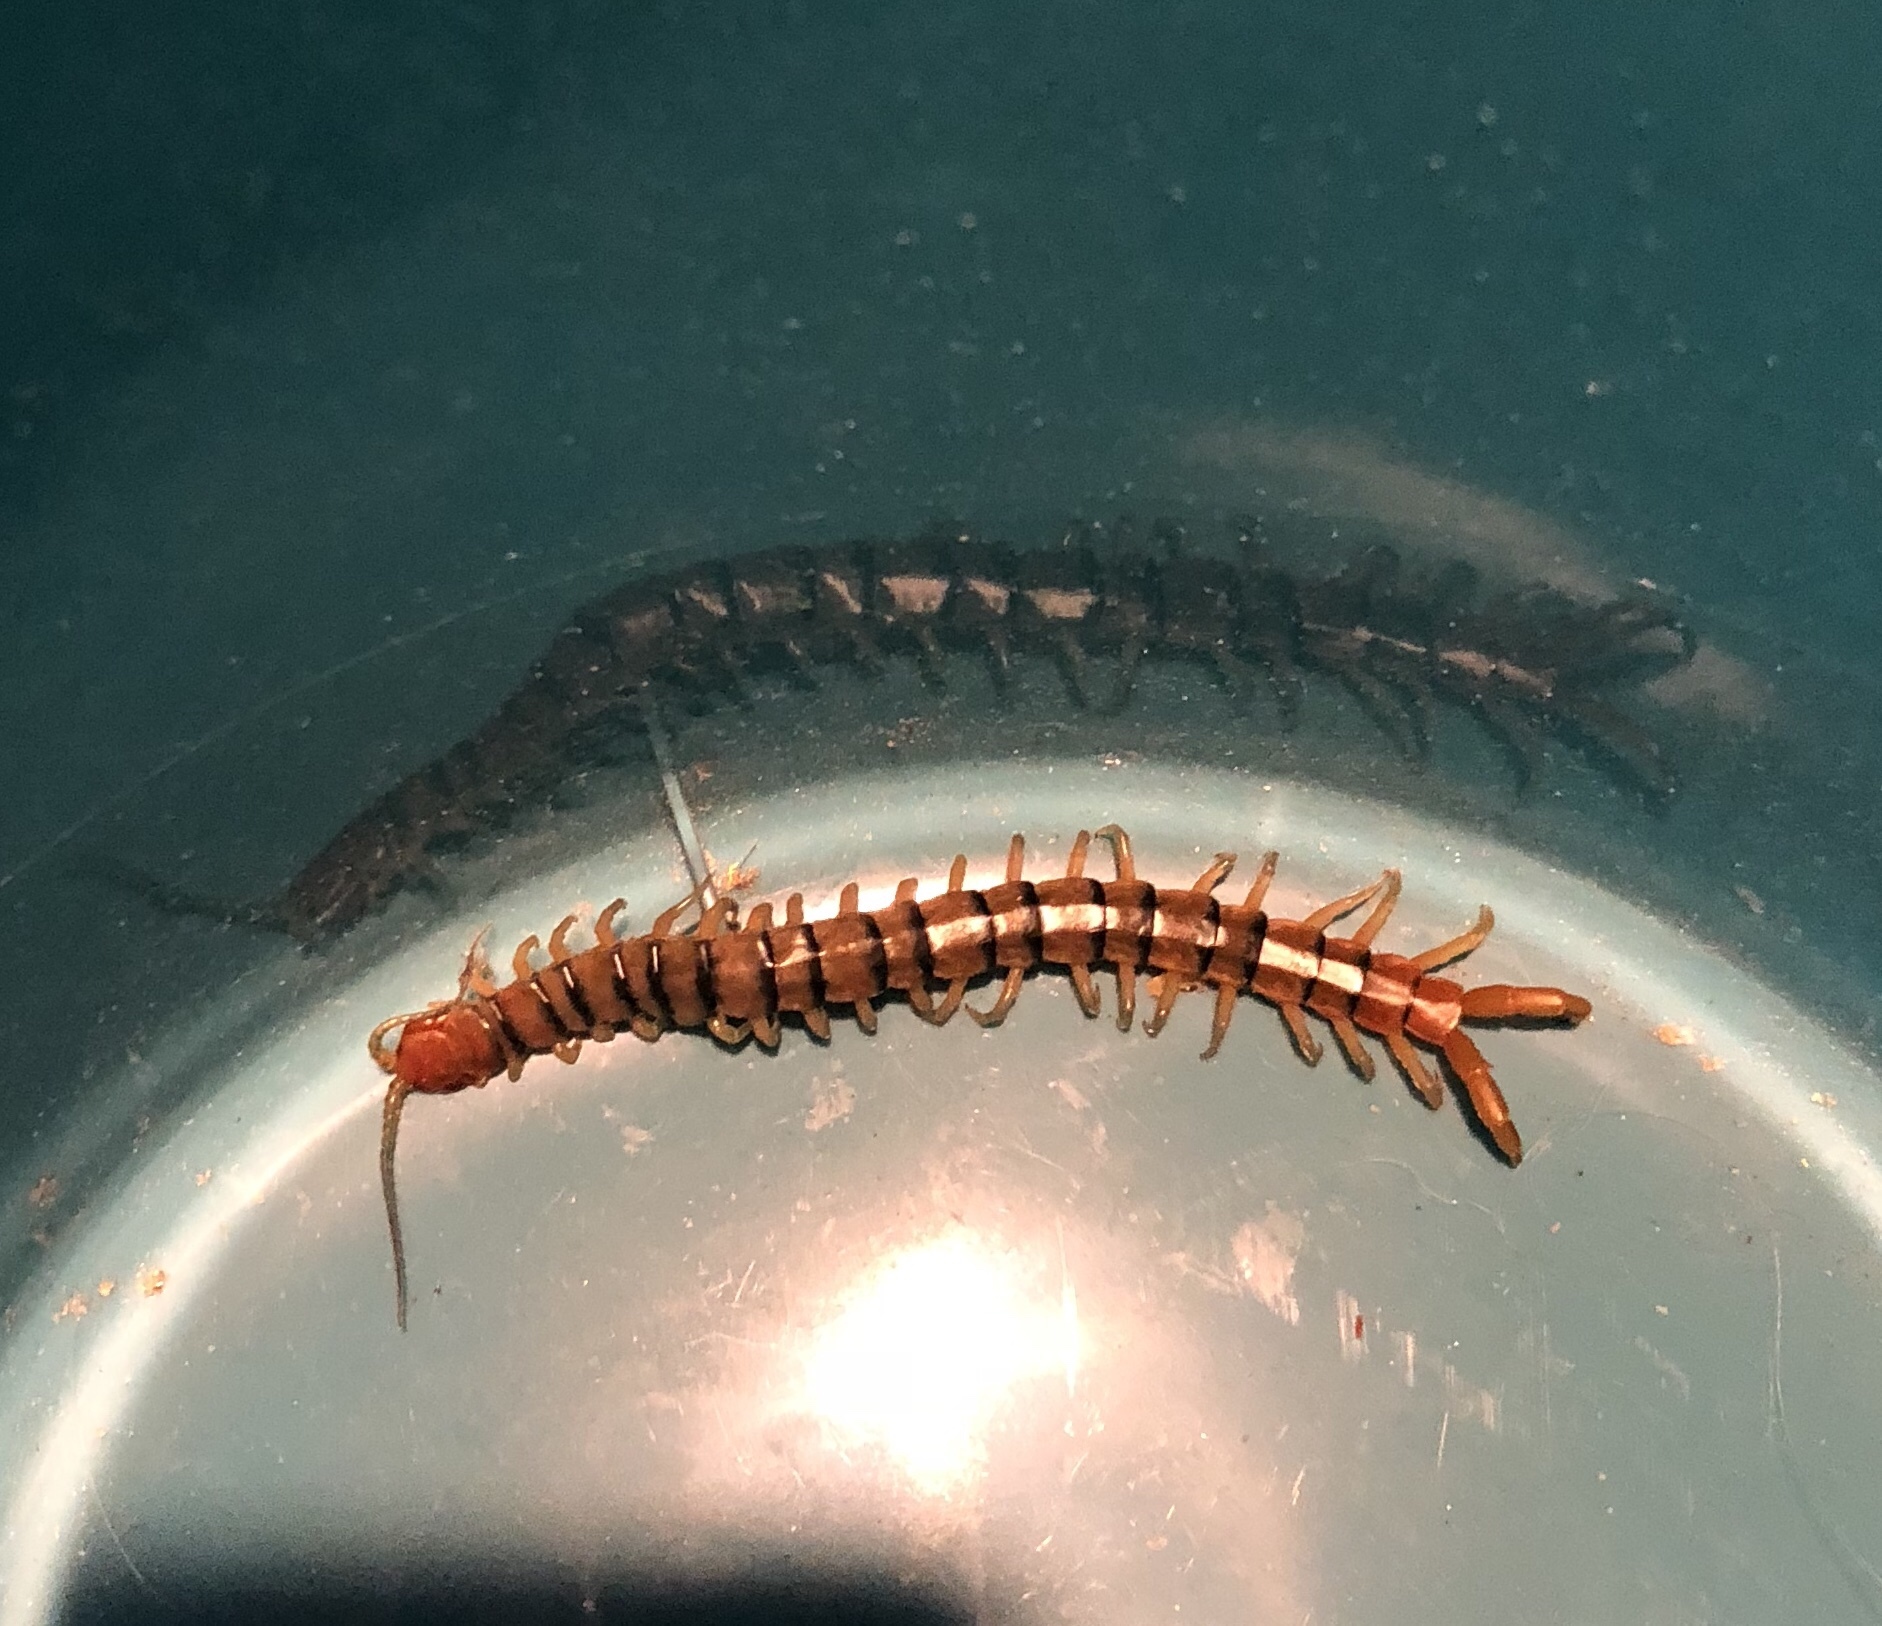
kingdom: Animalia
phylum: Arthropoda
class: Chilopoda
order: Scolopendromorpha
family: Scolopendridae
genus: Scolopendra
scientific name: Scolopendra polymorpha
